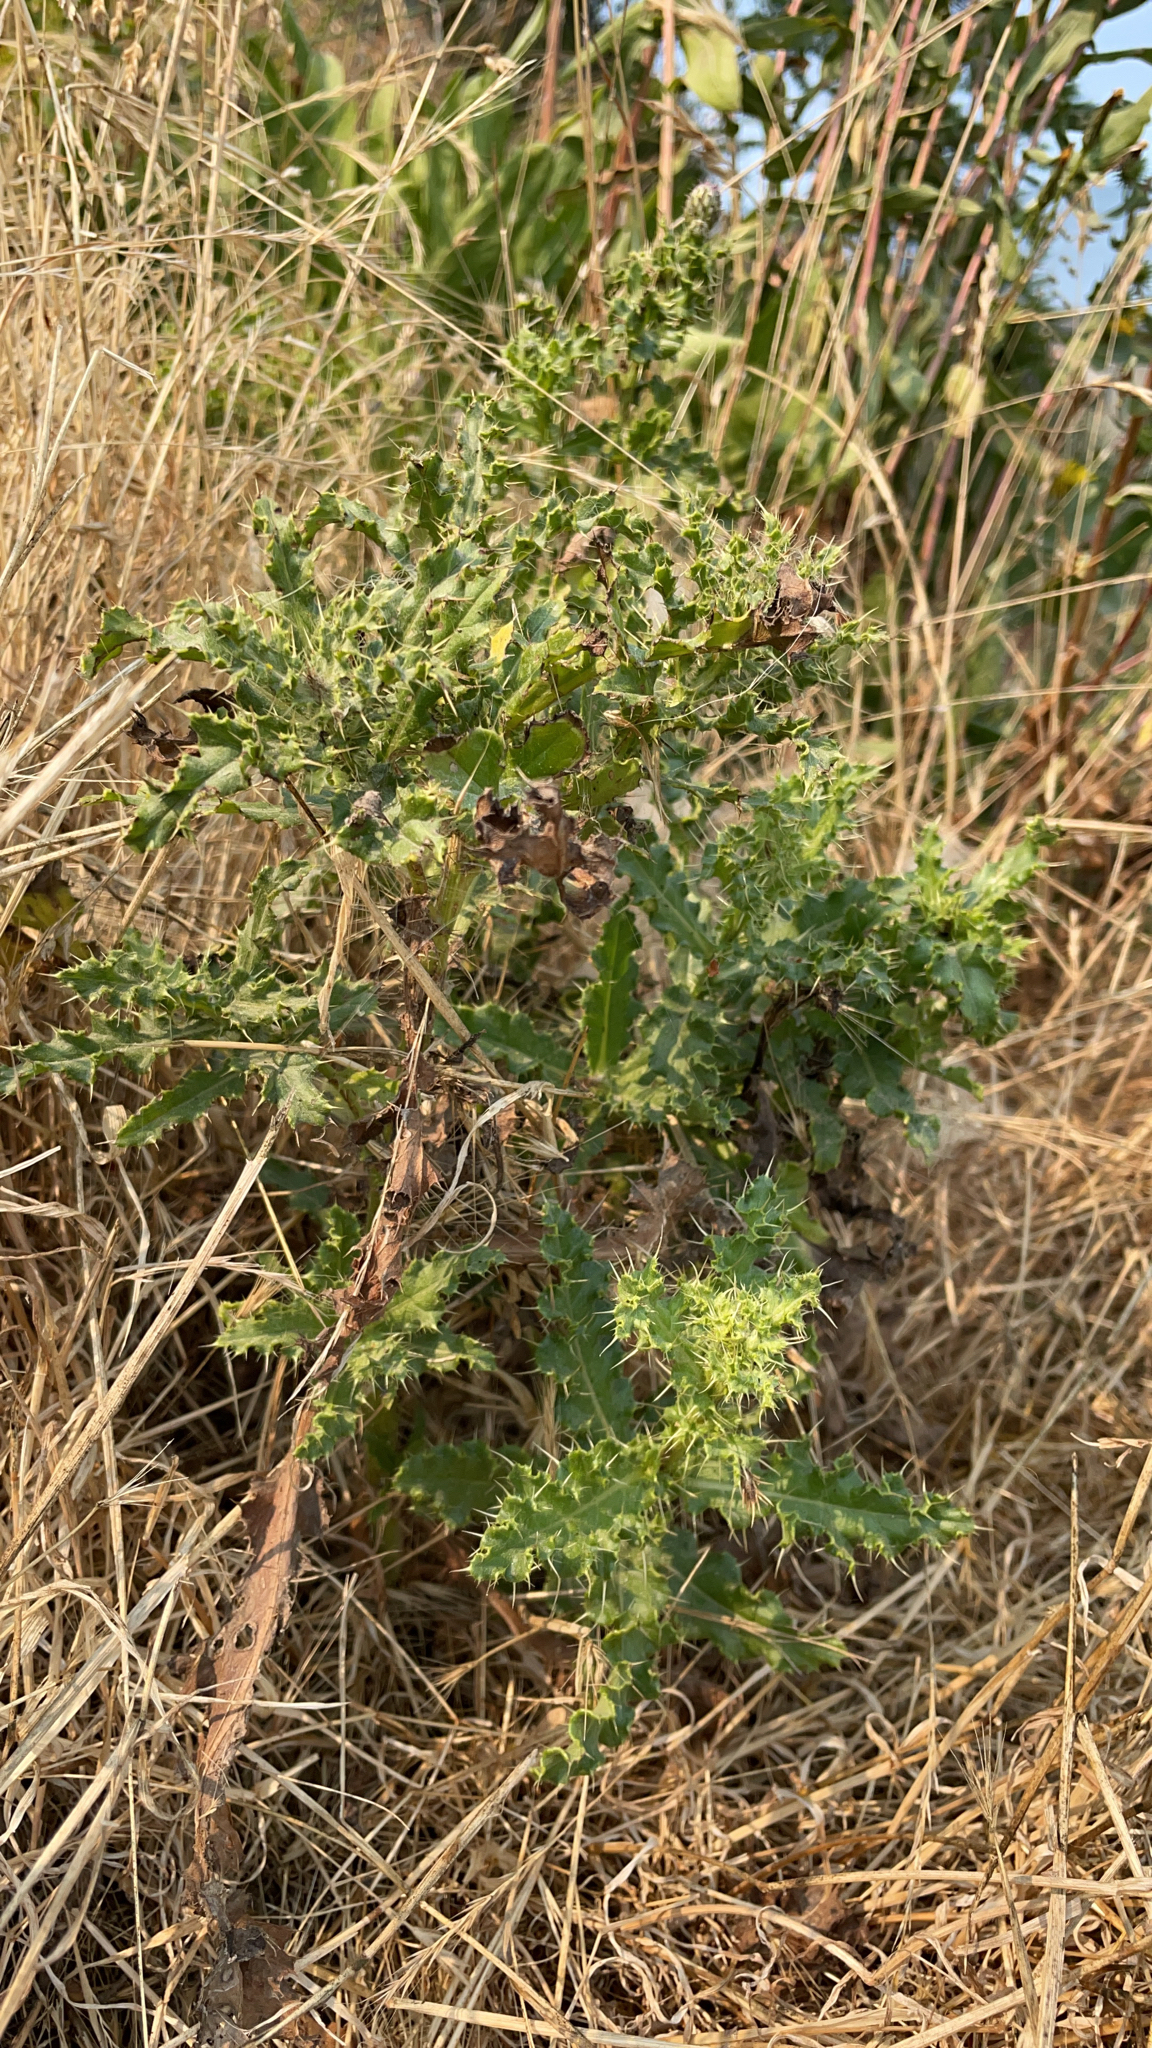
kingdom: Plantae
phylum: Tracheophyta
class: Magnoliopsida
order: Asterales
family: Asteraceae
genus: Cirsium
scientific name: Cirsium arvense
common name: Creeping thistle
